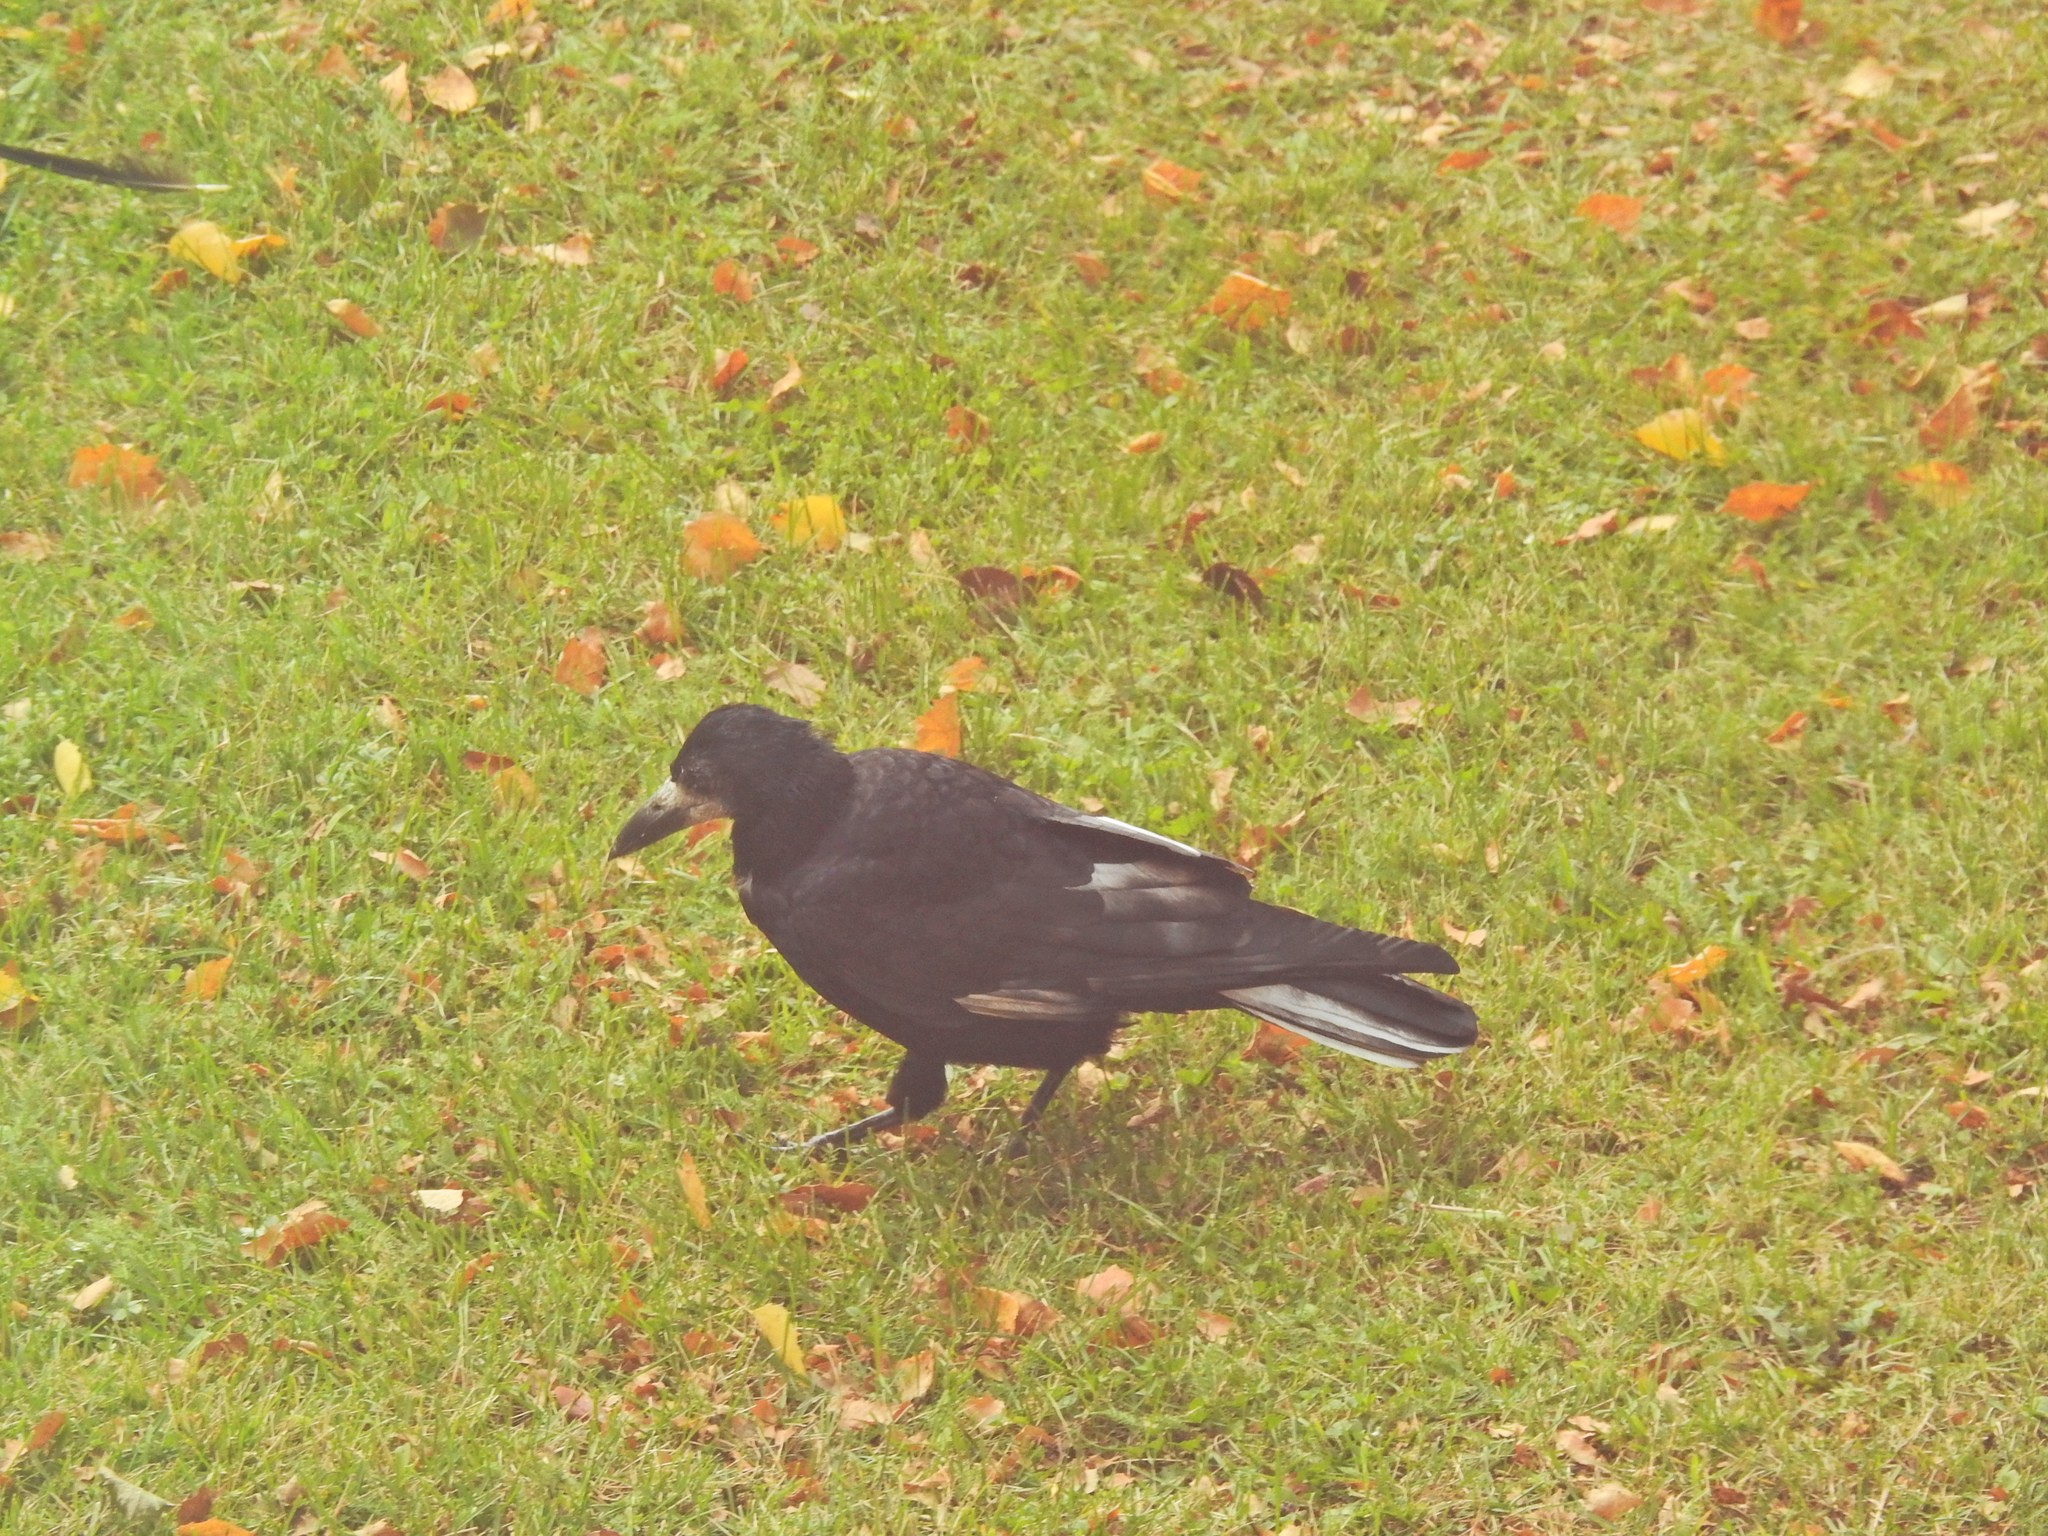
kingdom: Animalia
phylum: Chordata
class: Aves
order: Passeriformes
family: Corvidae
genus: Corvus
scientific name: Corvus frugilegus
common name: Rook
